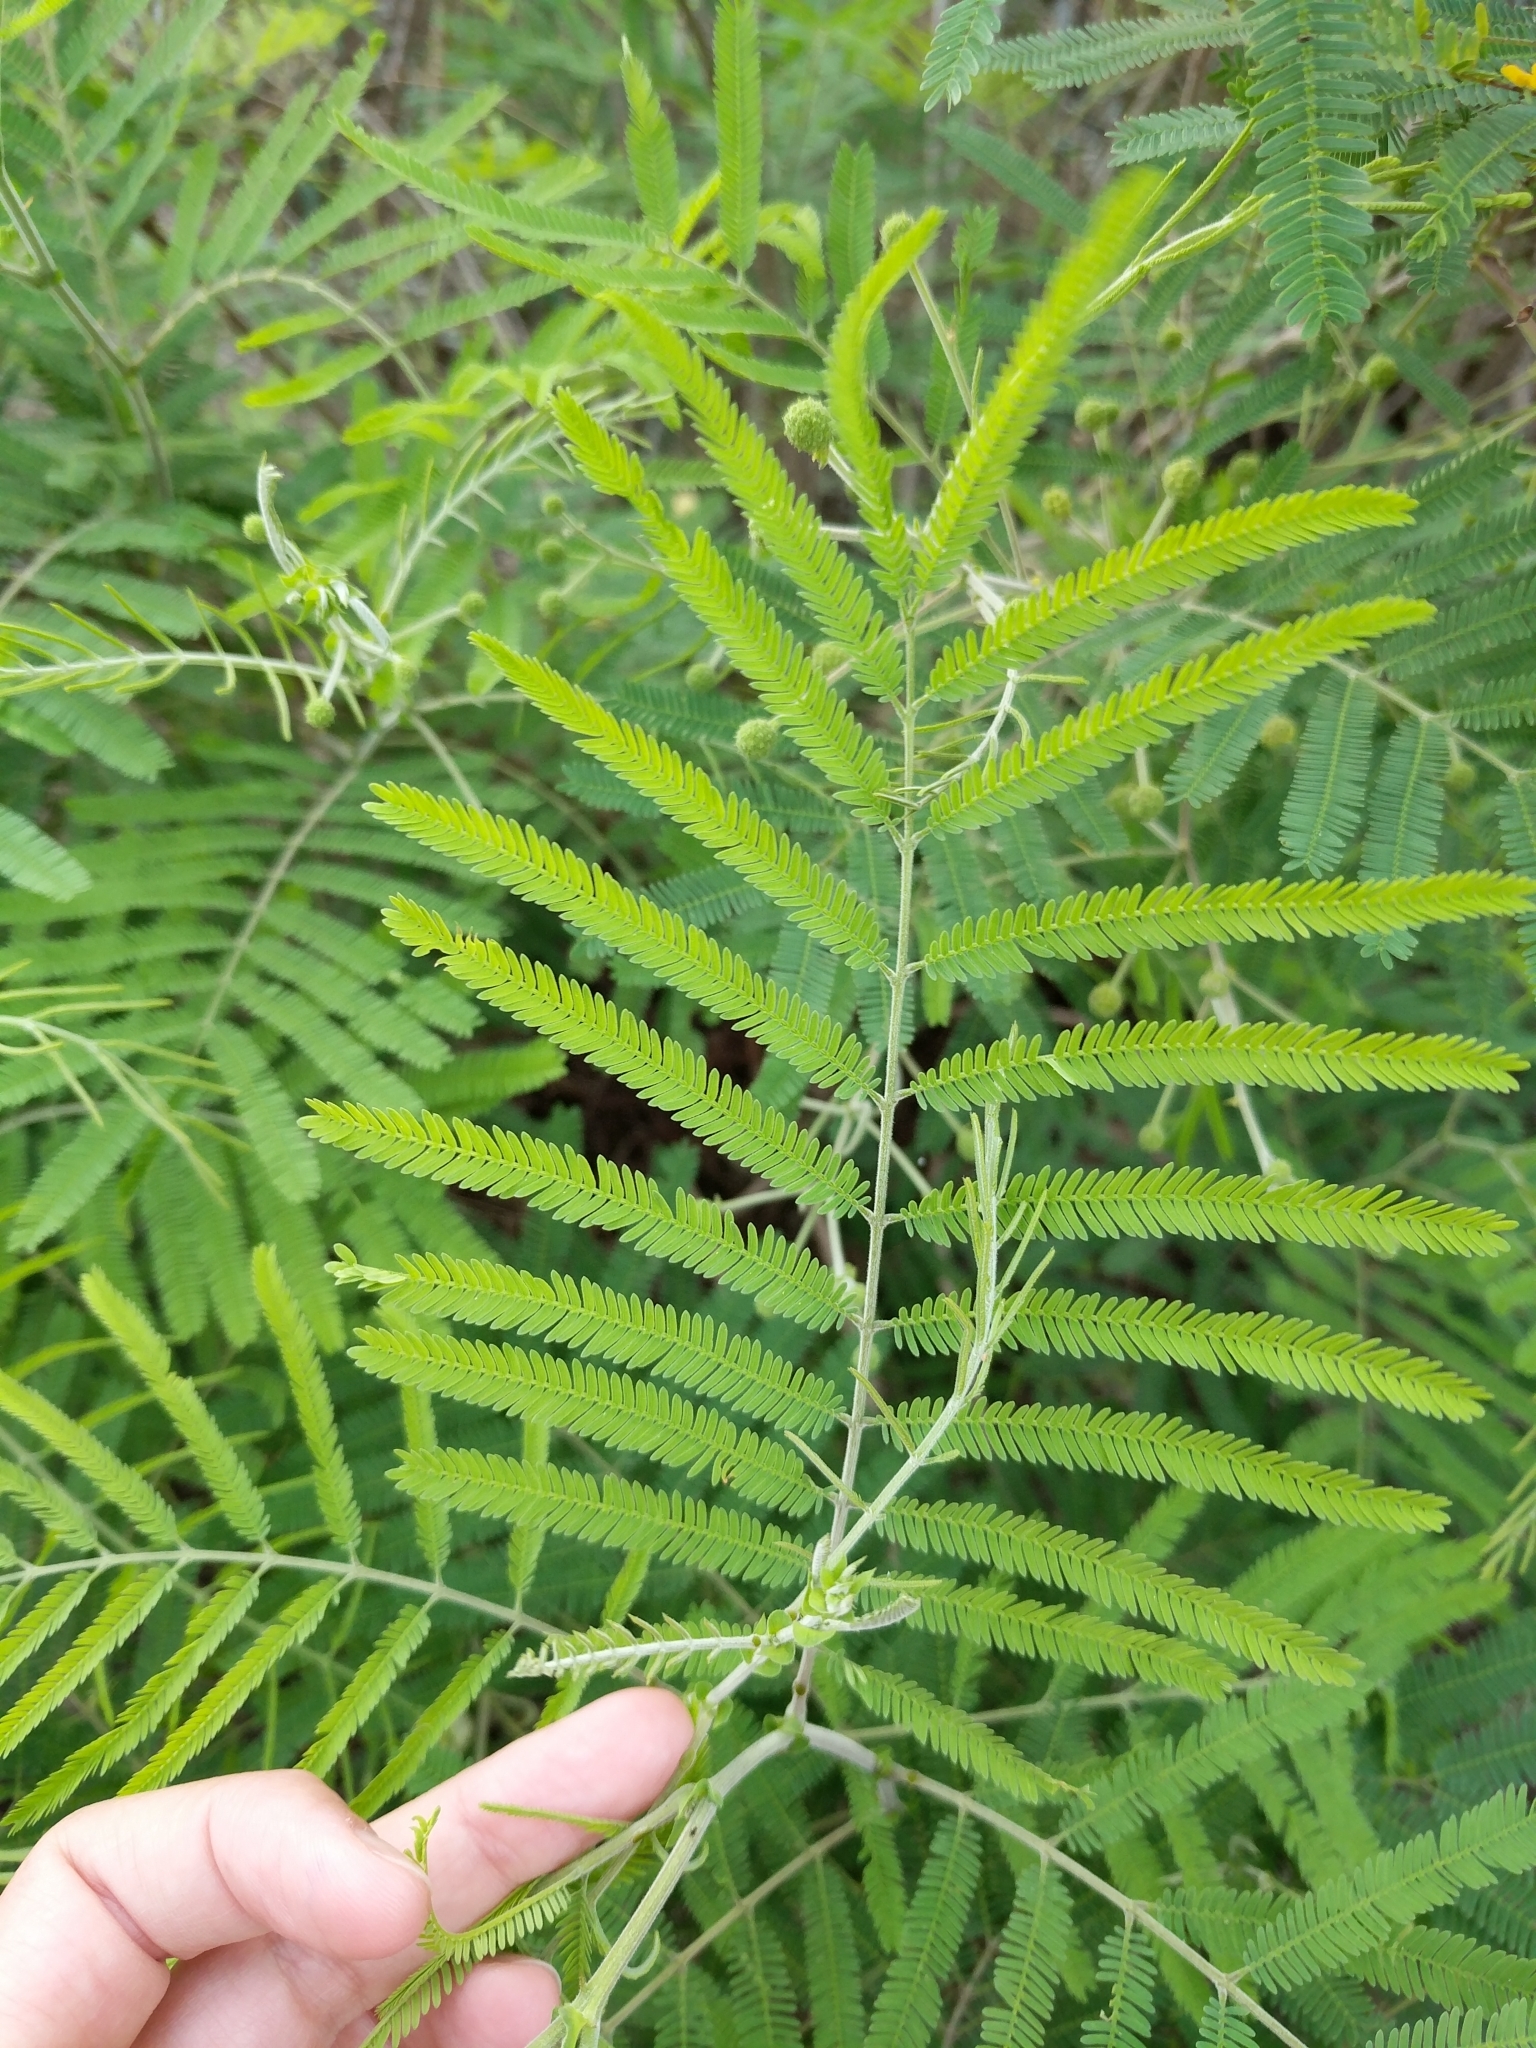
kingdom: Plantae
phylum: Tracheophyta
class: Magnoliopsida
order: Fabales
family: Fabaceae
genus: Senegalia
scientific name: Senegalia berlandieri
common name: Berlandier acacia
